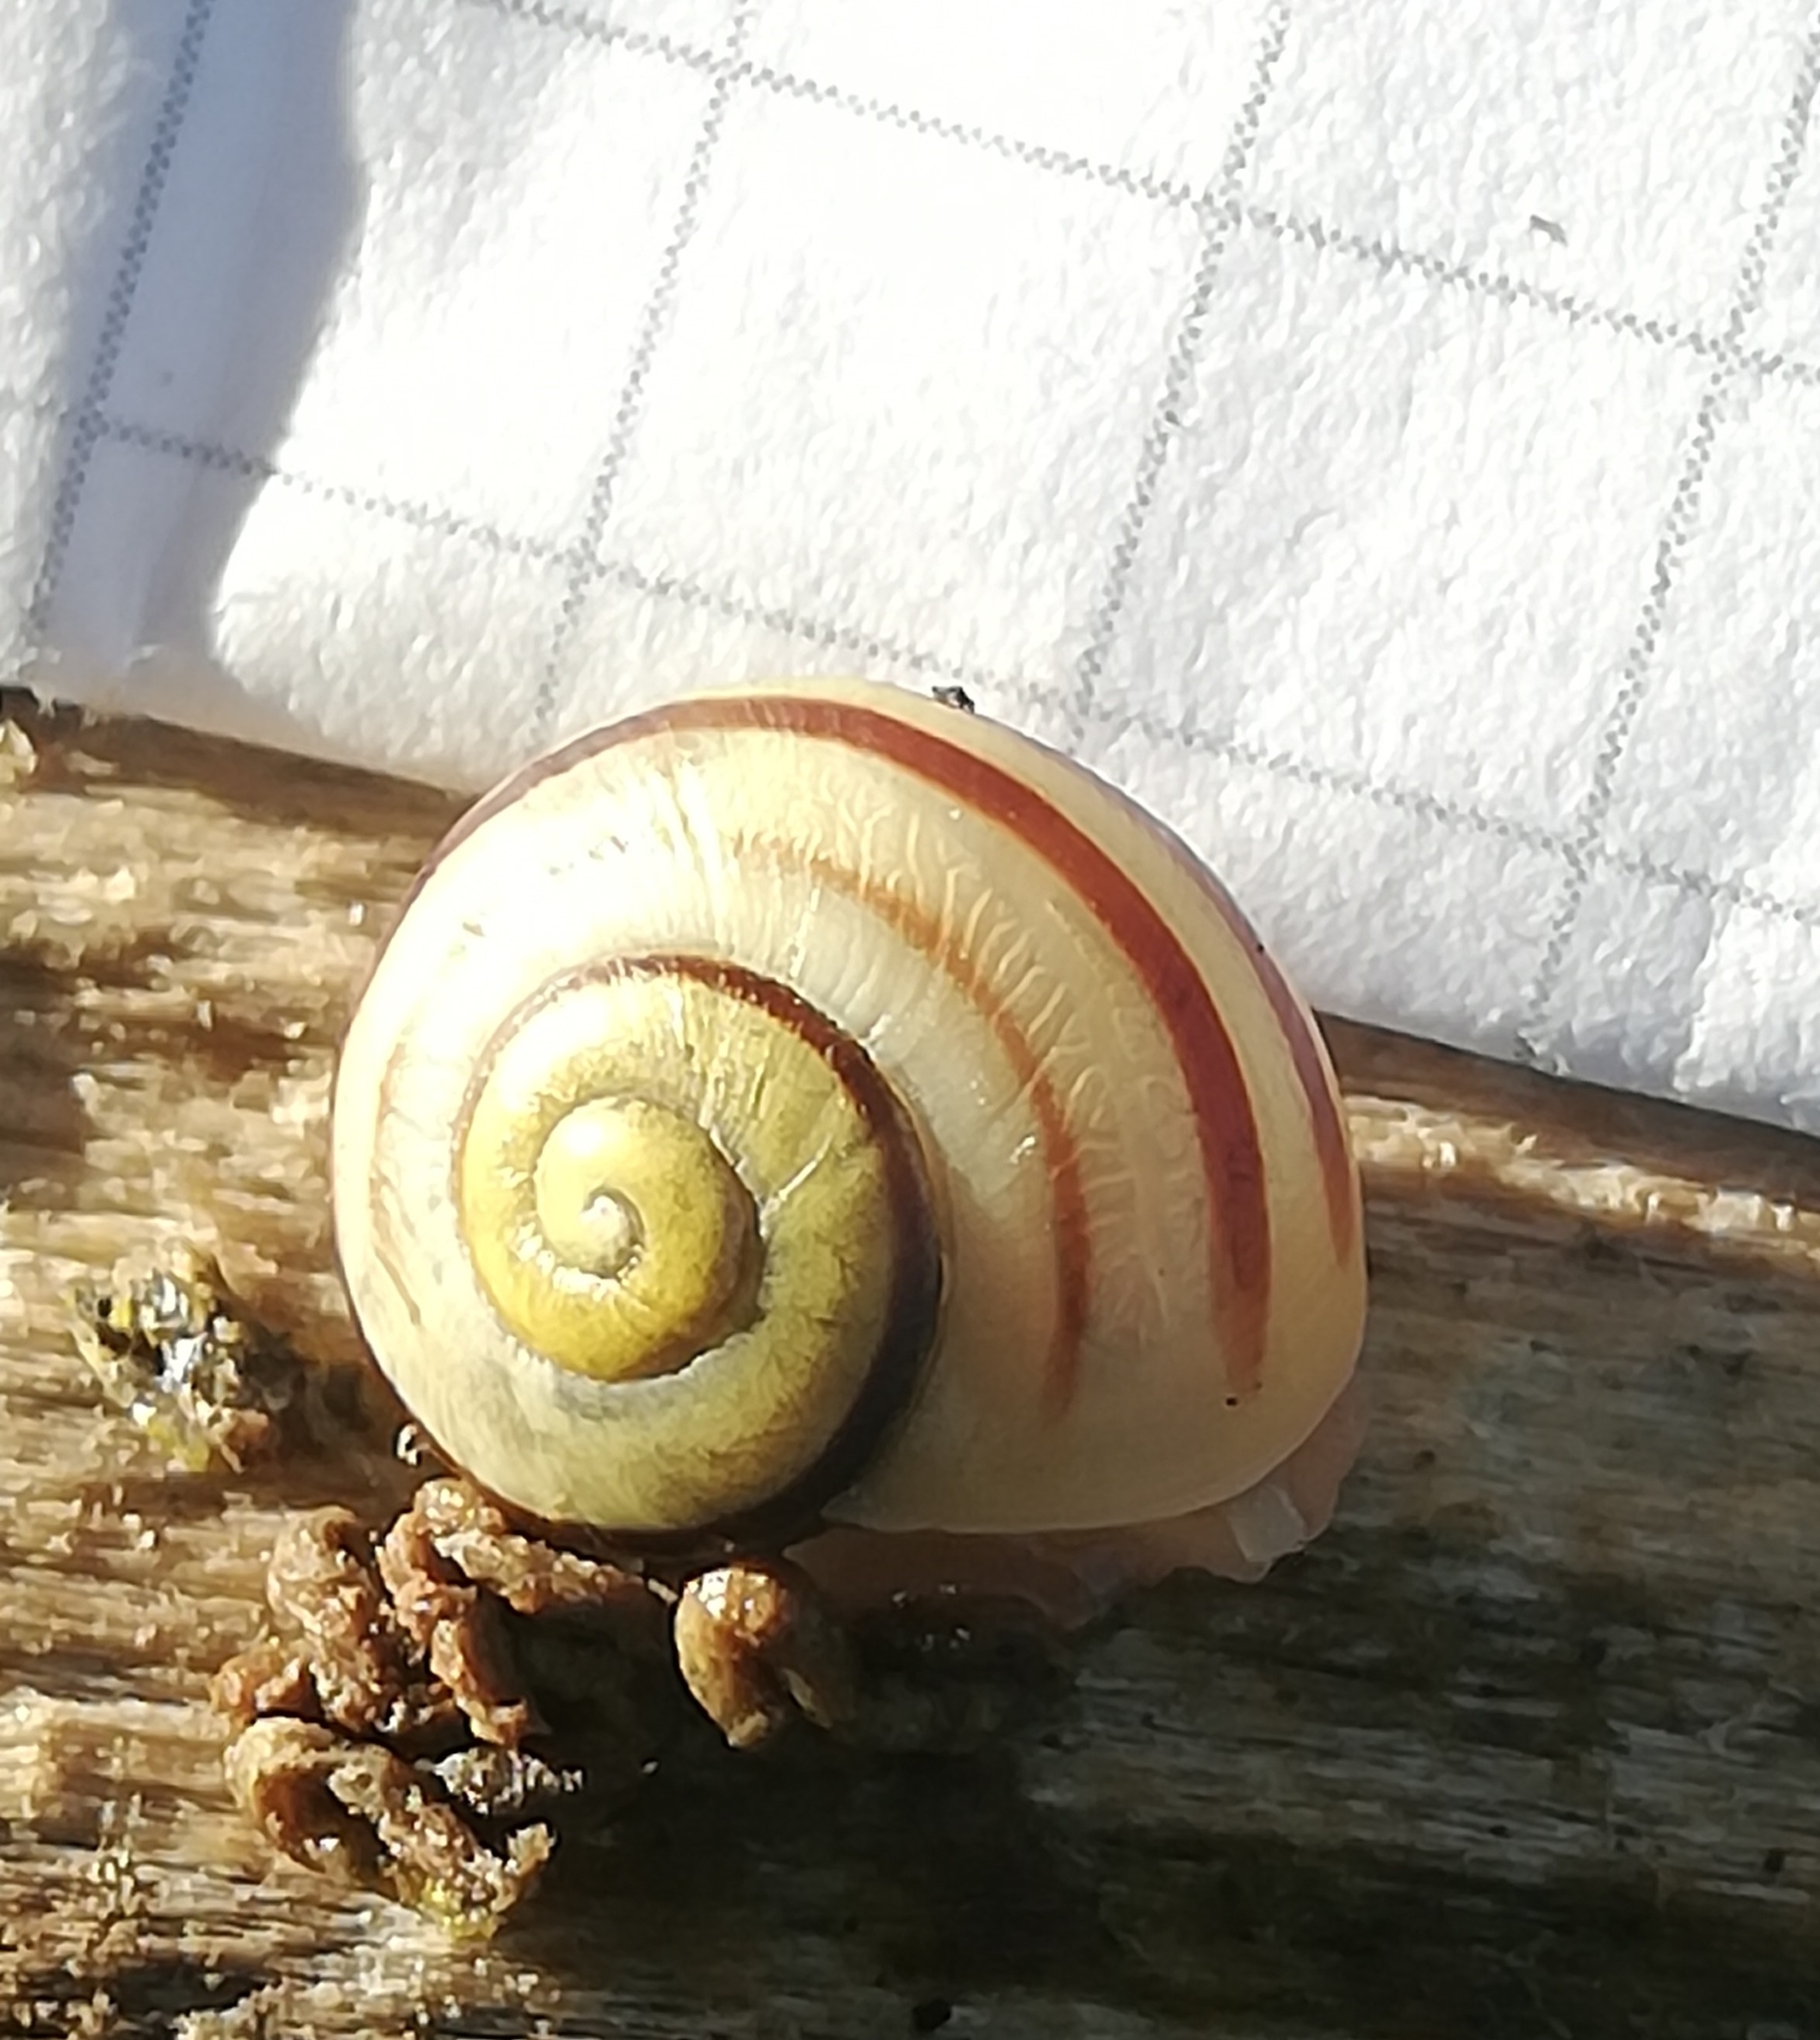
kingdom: Animalia
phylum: Mollusca
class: Gastropoda
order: Stylommatophora
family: Helicidae
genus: Cepaea
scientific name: Cepaea hortensis
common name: White-lip gardensnail
